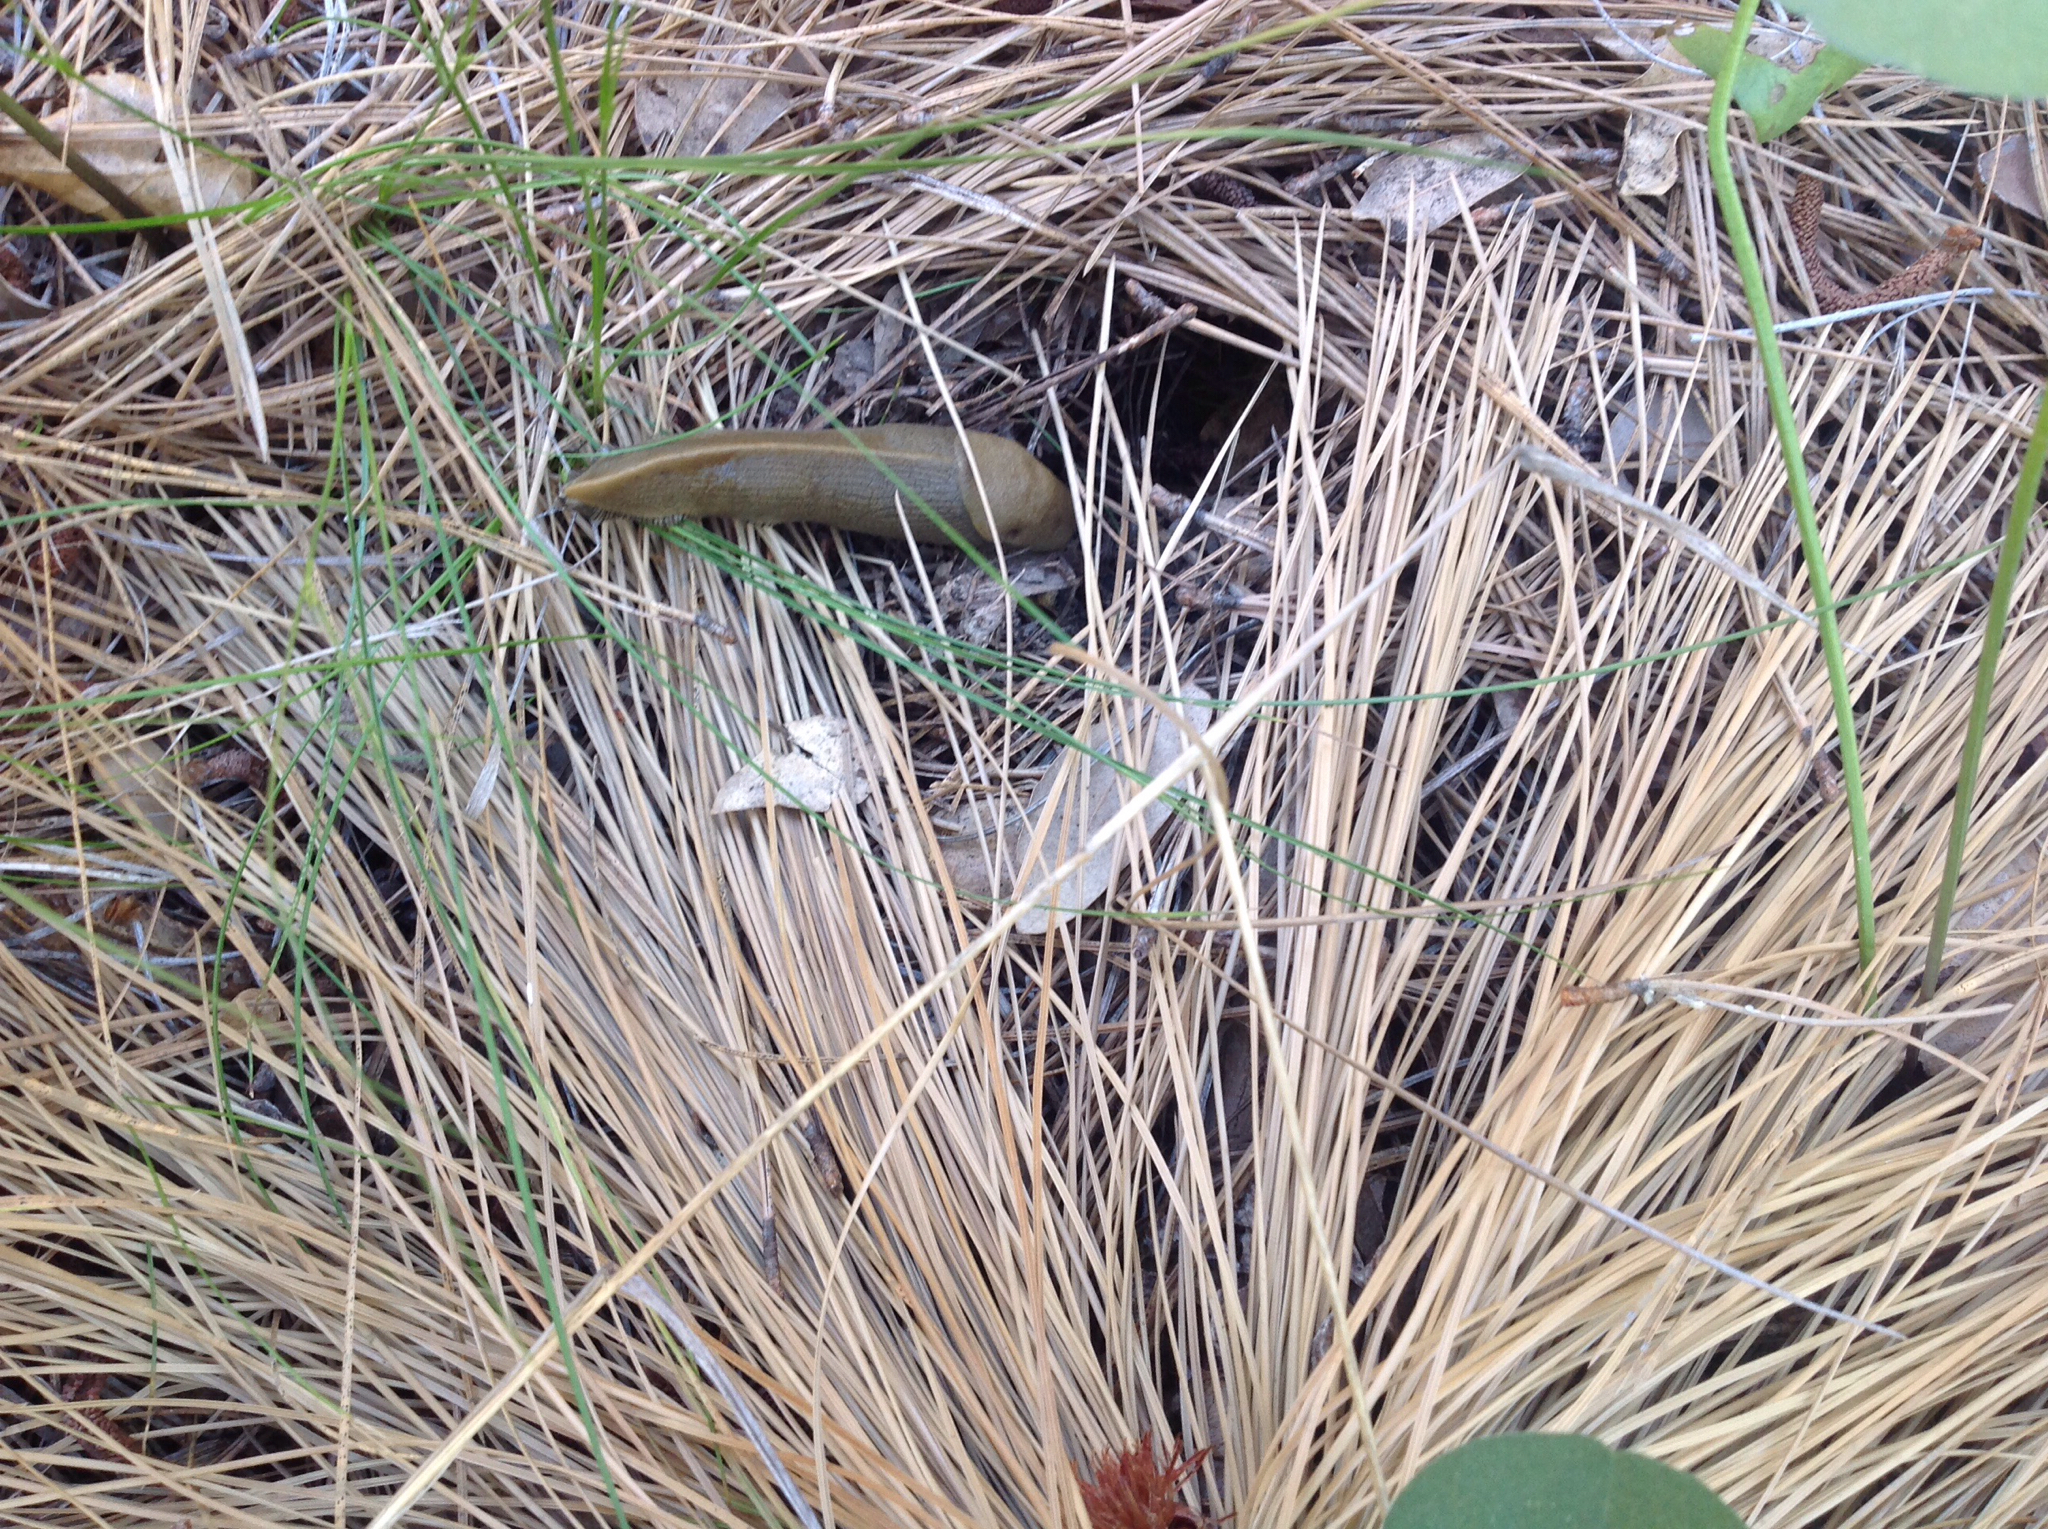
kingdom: Animalia
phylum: Mollusca
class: Gastropoda
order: Stylommatophora
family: Ariolimacidae
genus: Ariolimax
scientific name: Ariolimax buttoni
